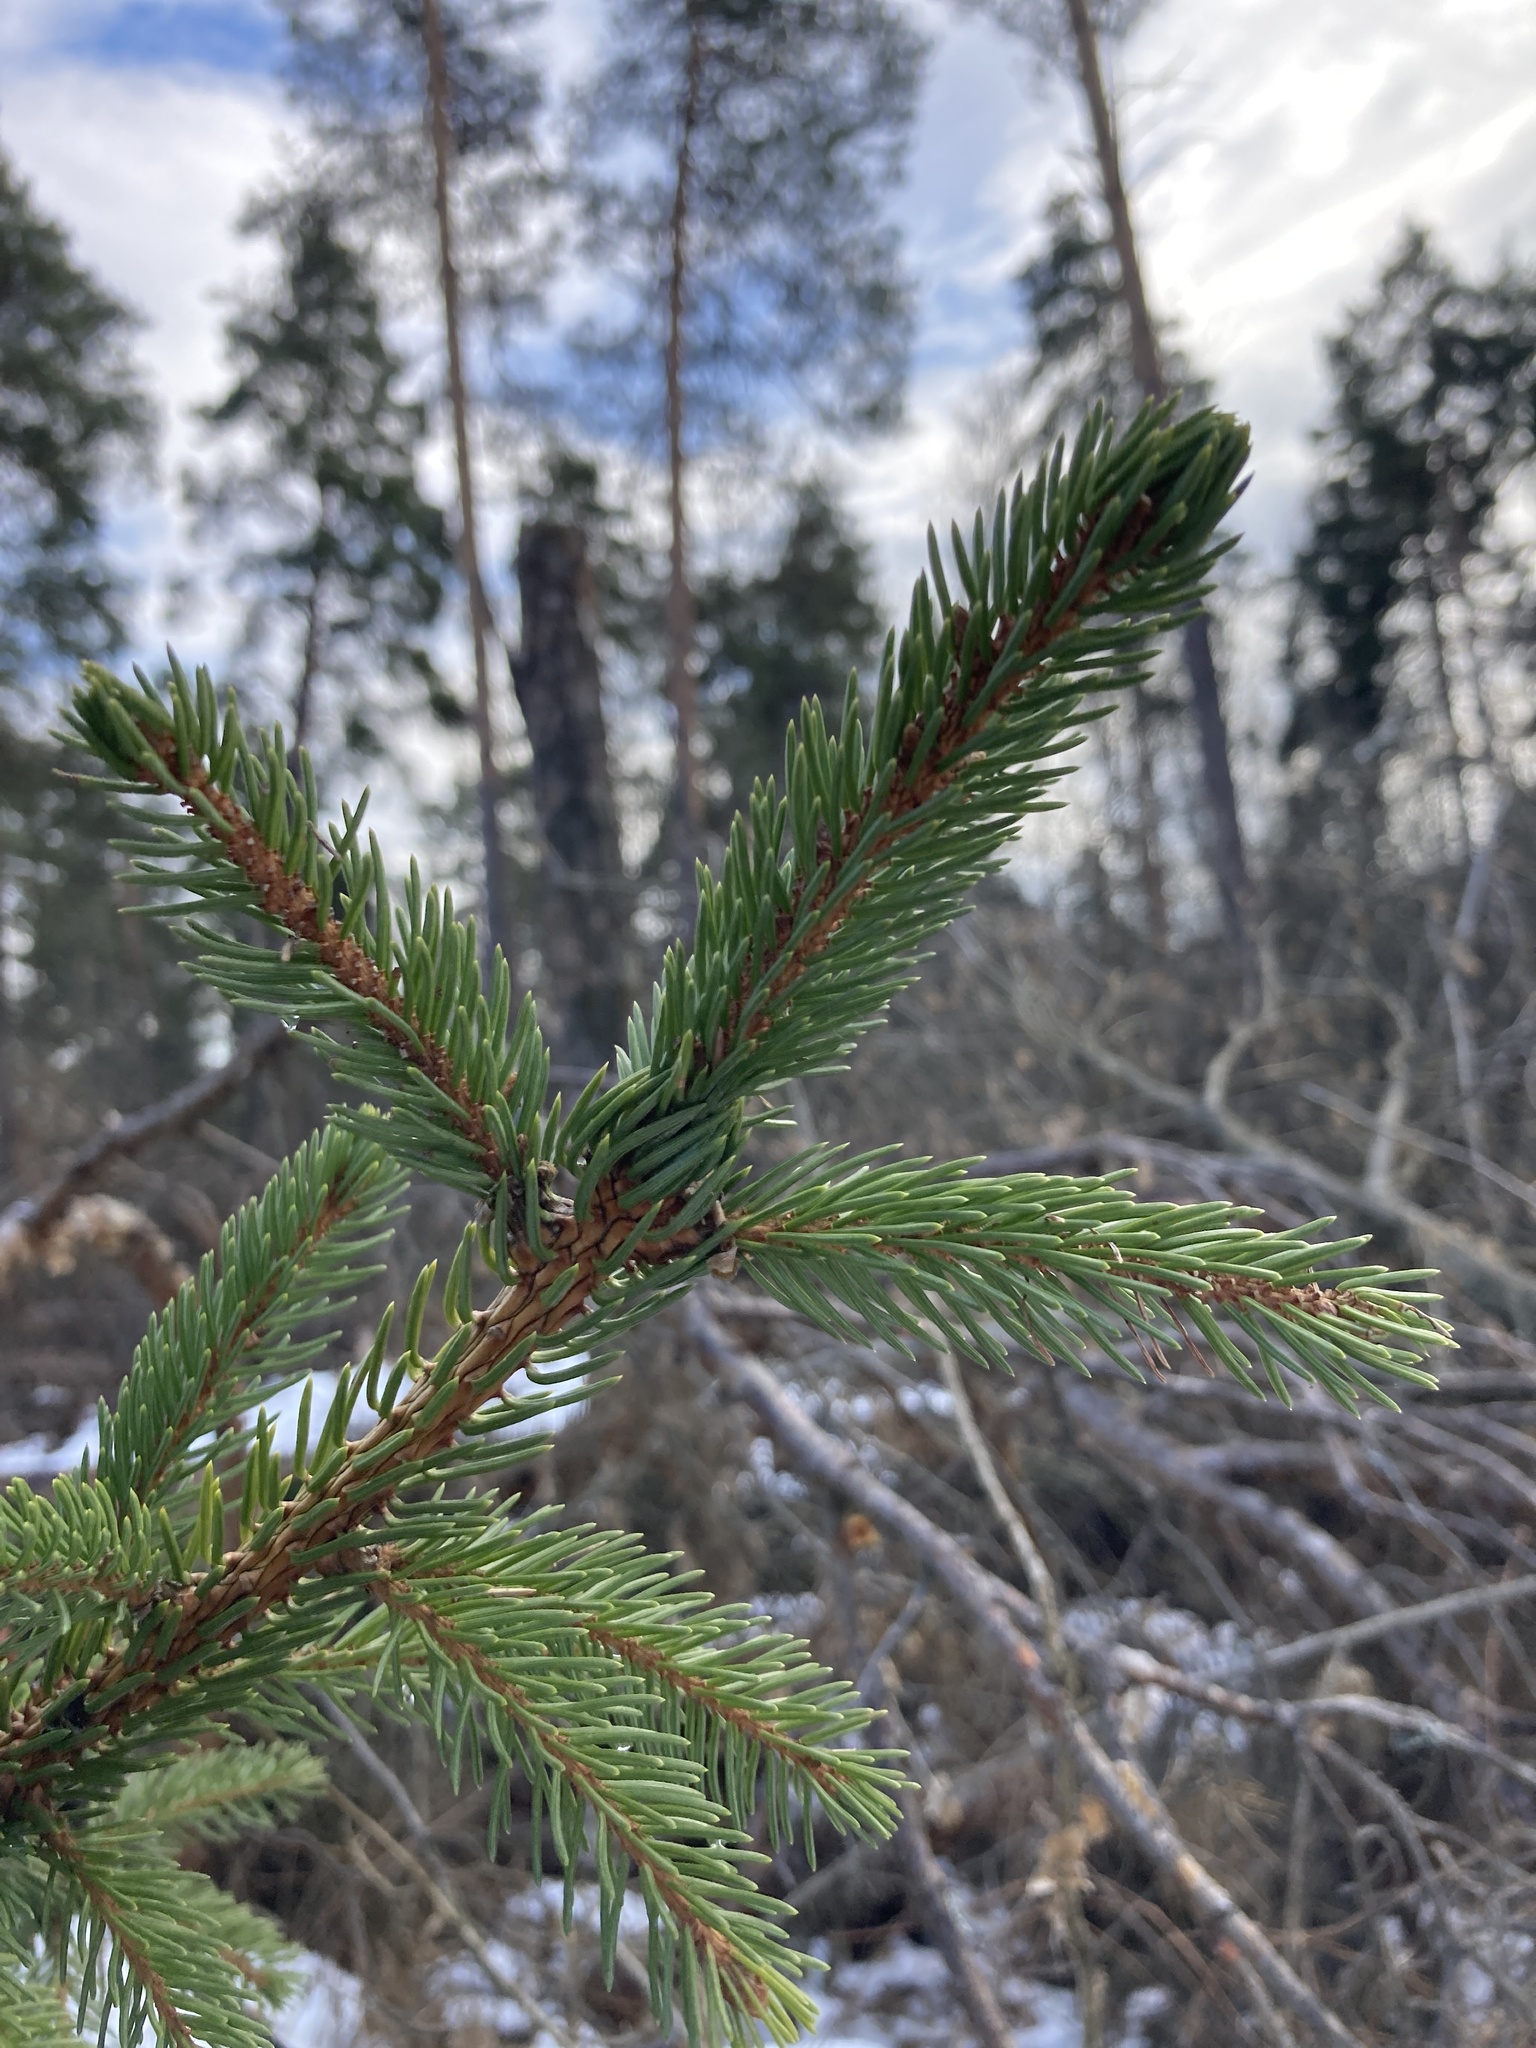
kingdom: Plantae
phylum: Tracheophyta
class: Pinopsida
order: Pinales
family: Pinaceae
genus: Picea
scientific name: Picea abies
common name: Norway spruce
